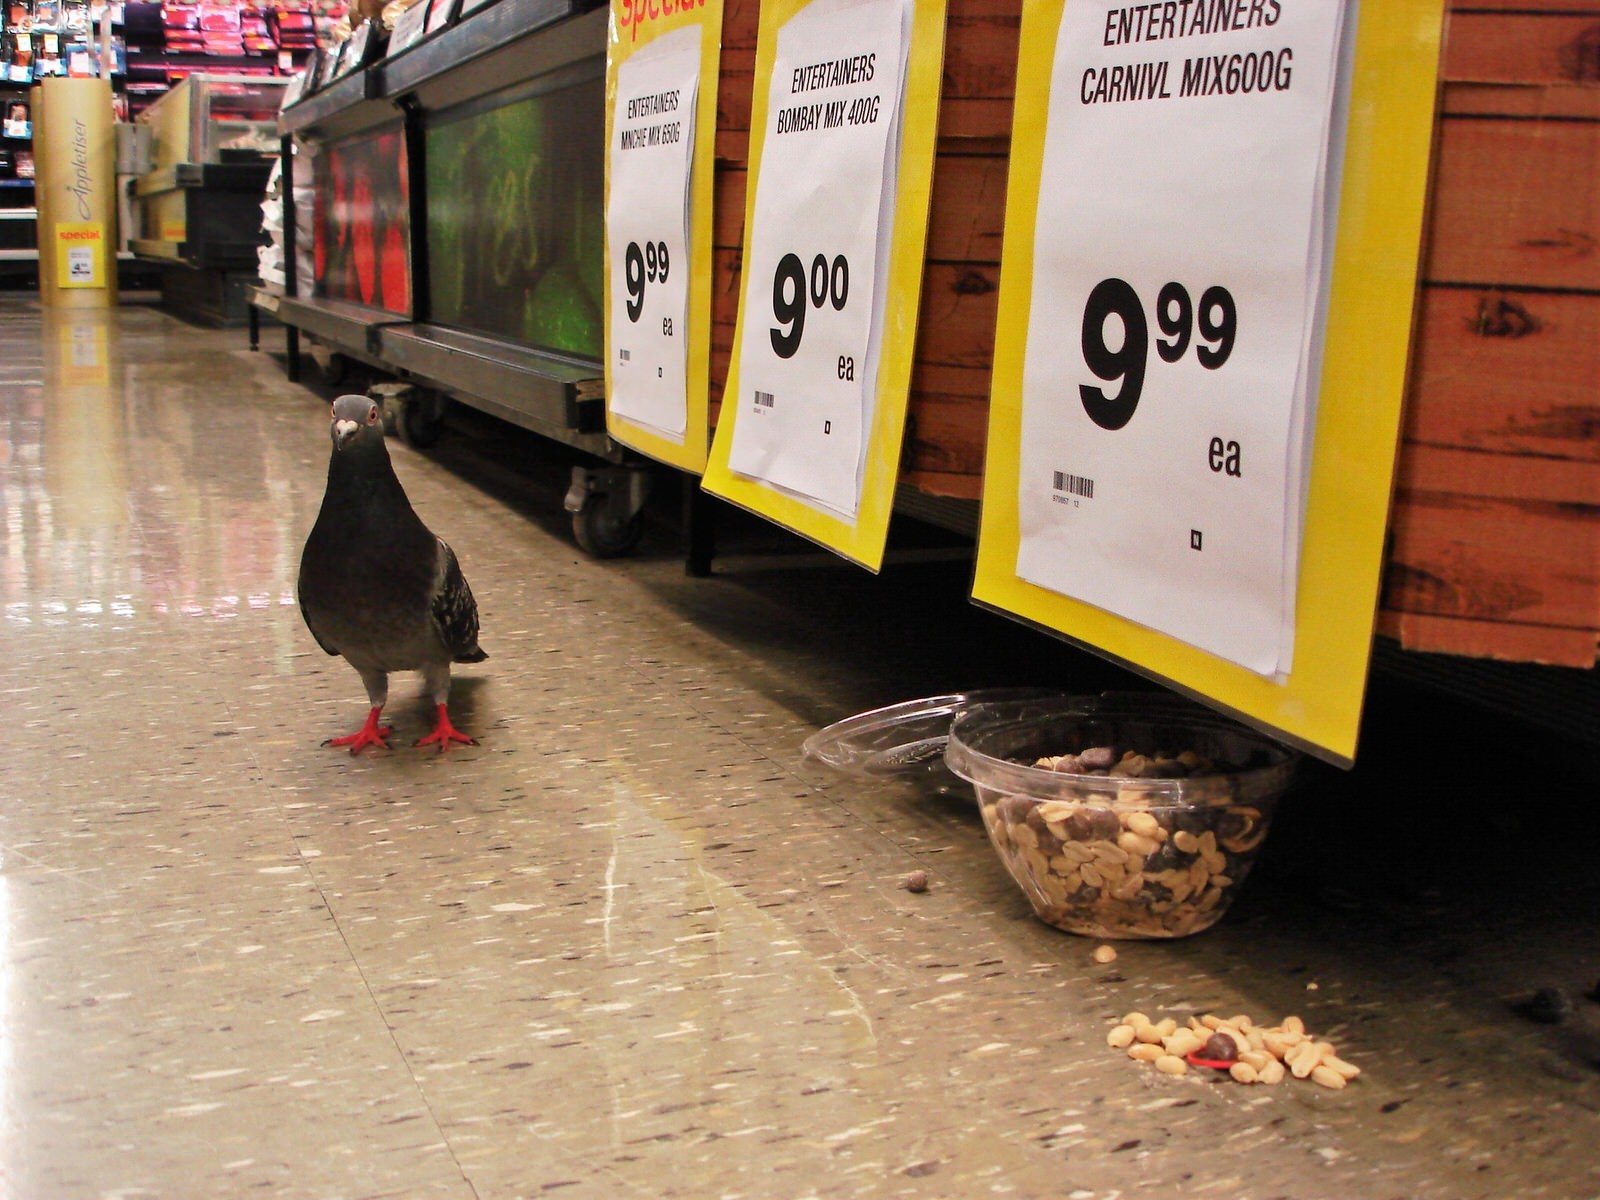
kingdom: Animalia
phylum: Chordata
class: Aves
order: Columbiformes
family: Columbidae
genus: Columba
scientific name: Columba livia
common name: Rock pigeon
